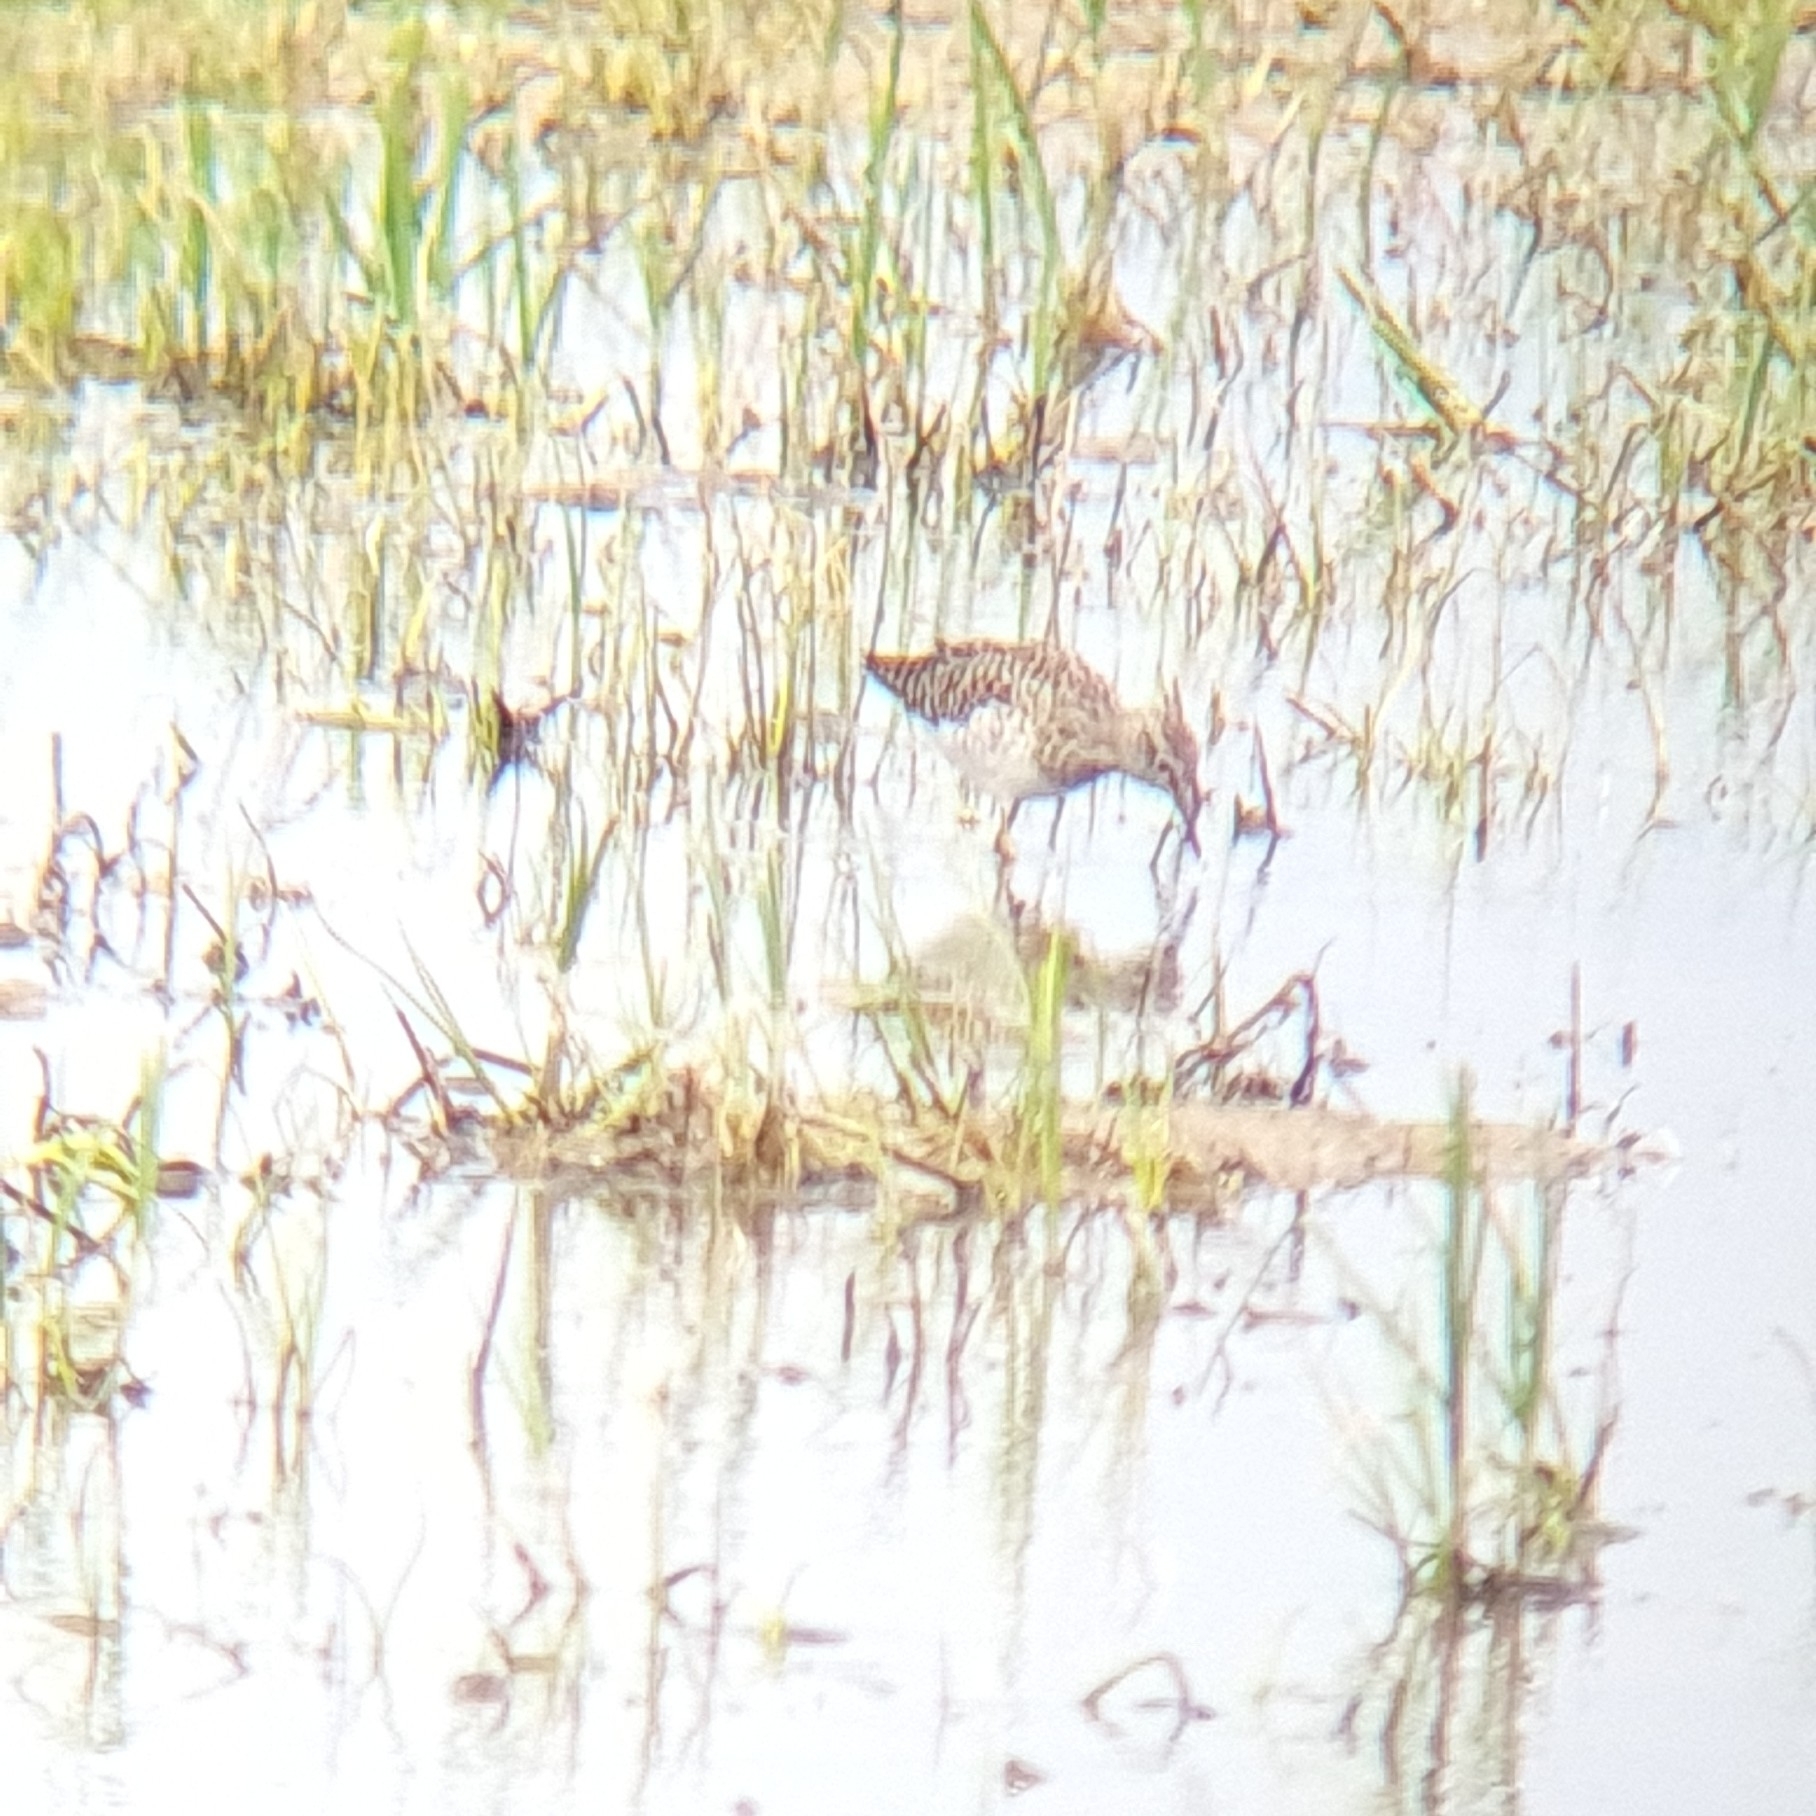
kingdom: Animalia
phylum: Chordata
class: Aves
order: Charadriiformes
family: Scolopacidae
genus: Tringa
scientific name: Tringa glareola
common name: Wood sandpiper
